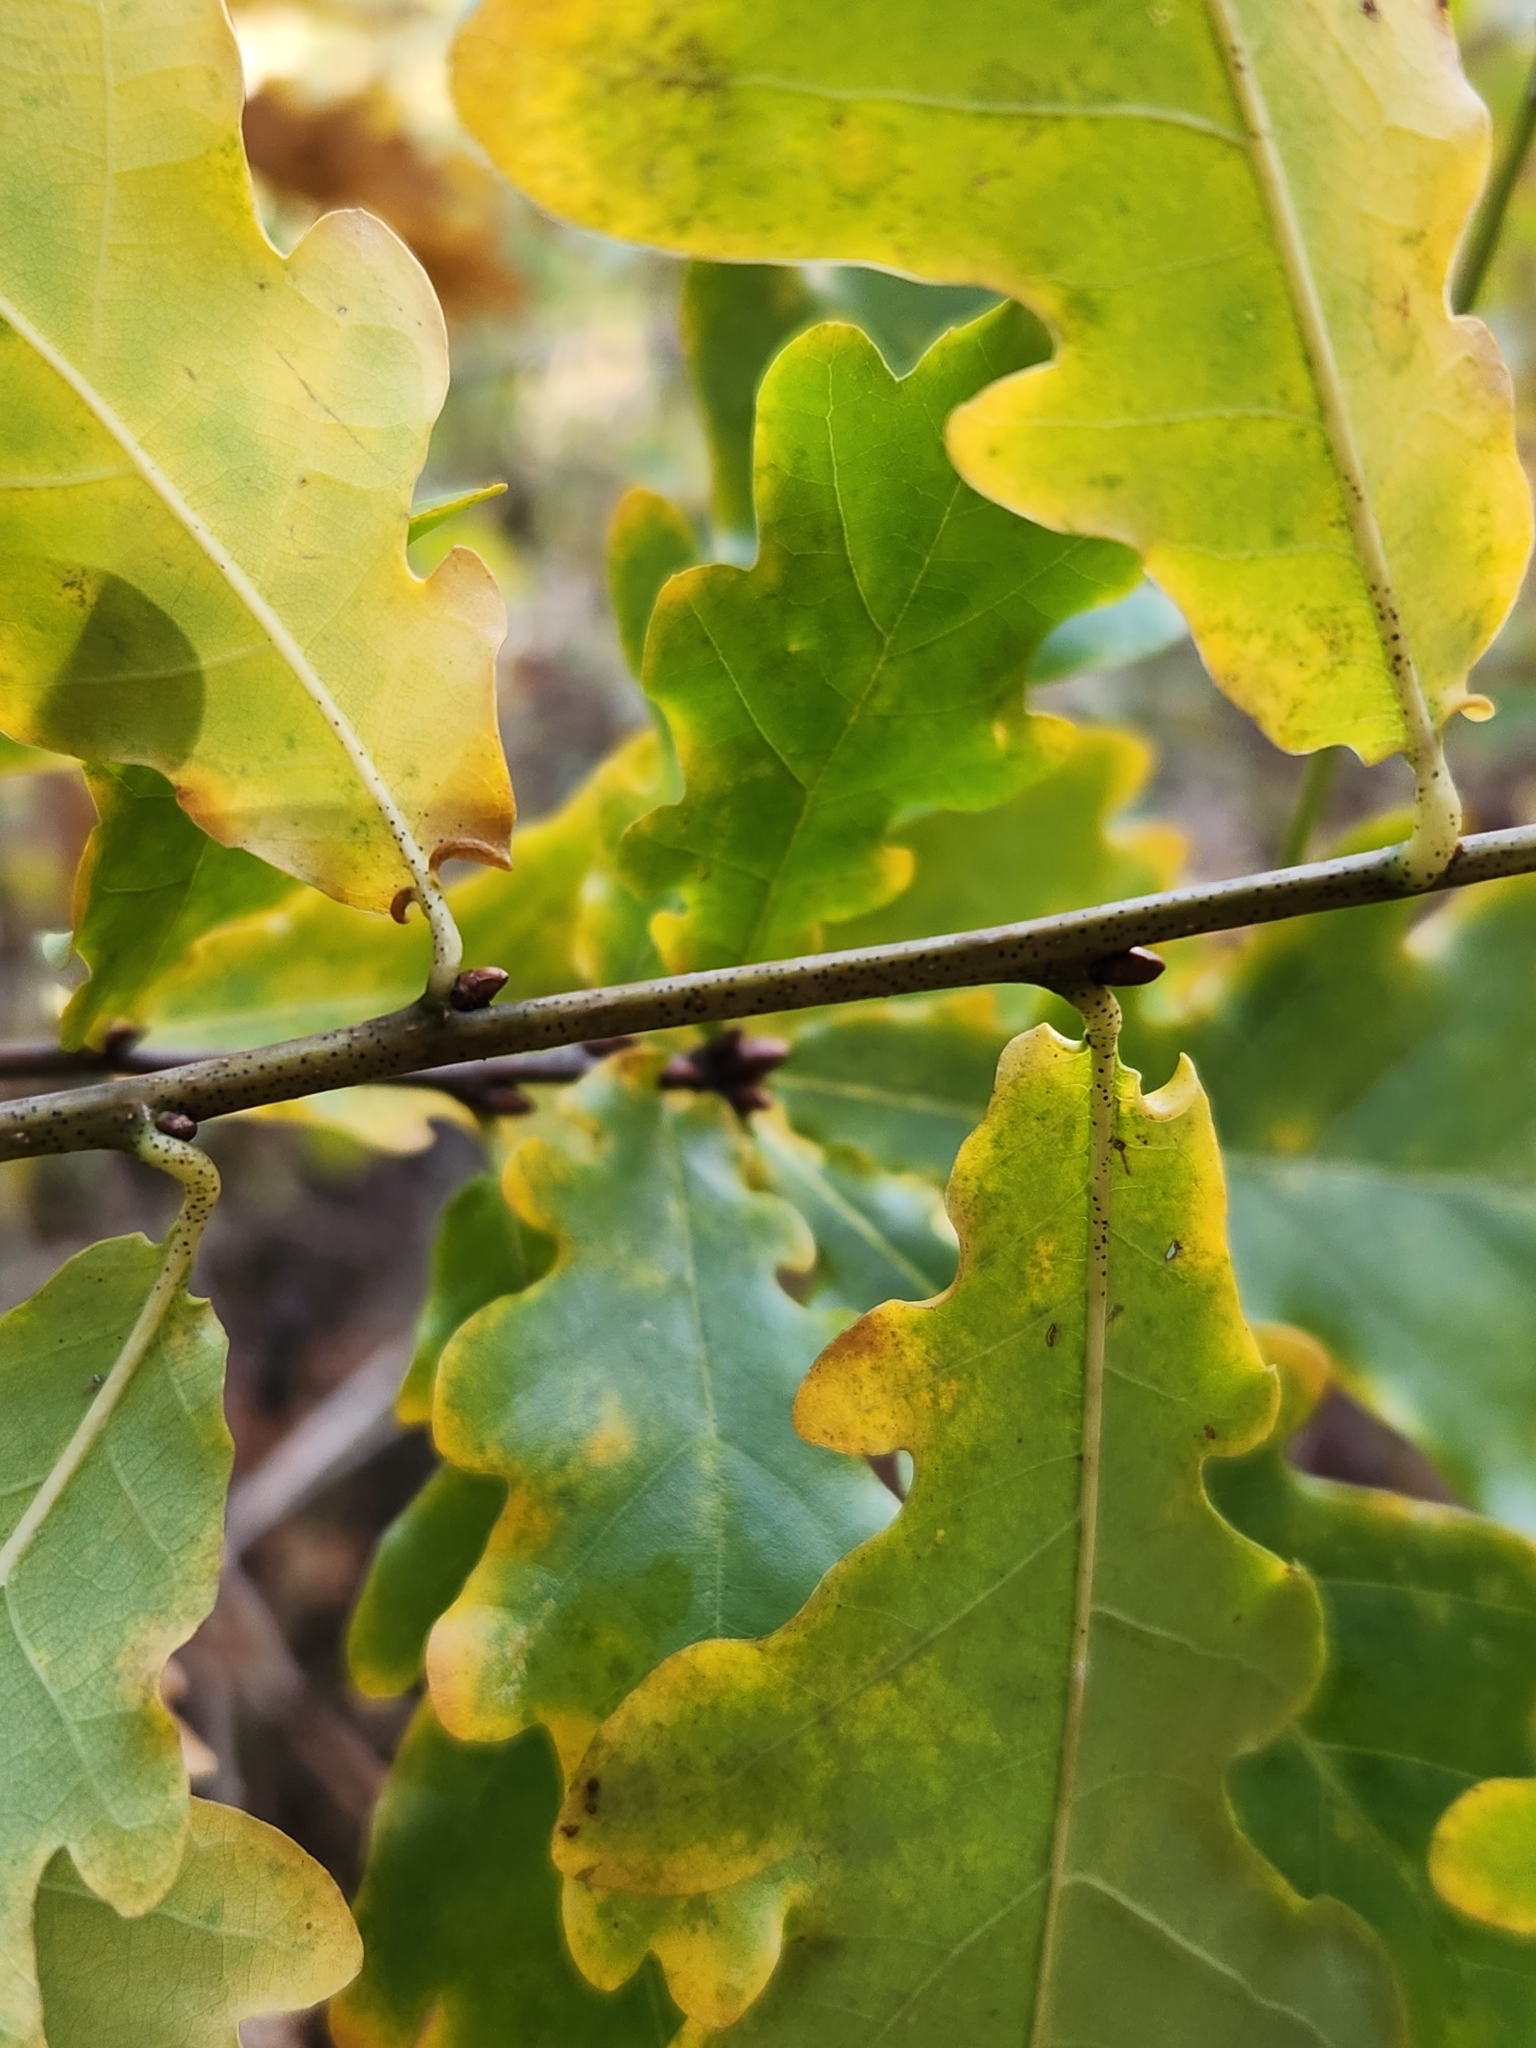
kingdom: Plantae
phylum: Tracheophyta
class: Magnoliopsida
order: Fagales
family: Fagaceae
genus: Quercus
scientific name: Quercus robur
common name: Pedunculate oak
